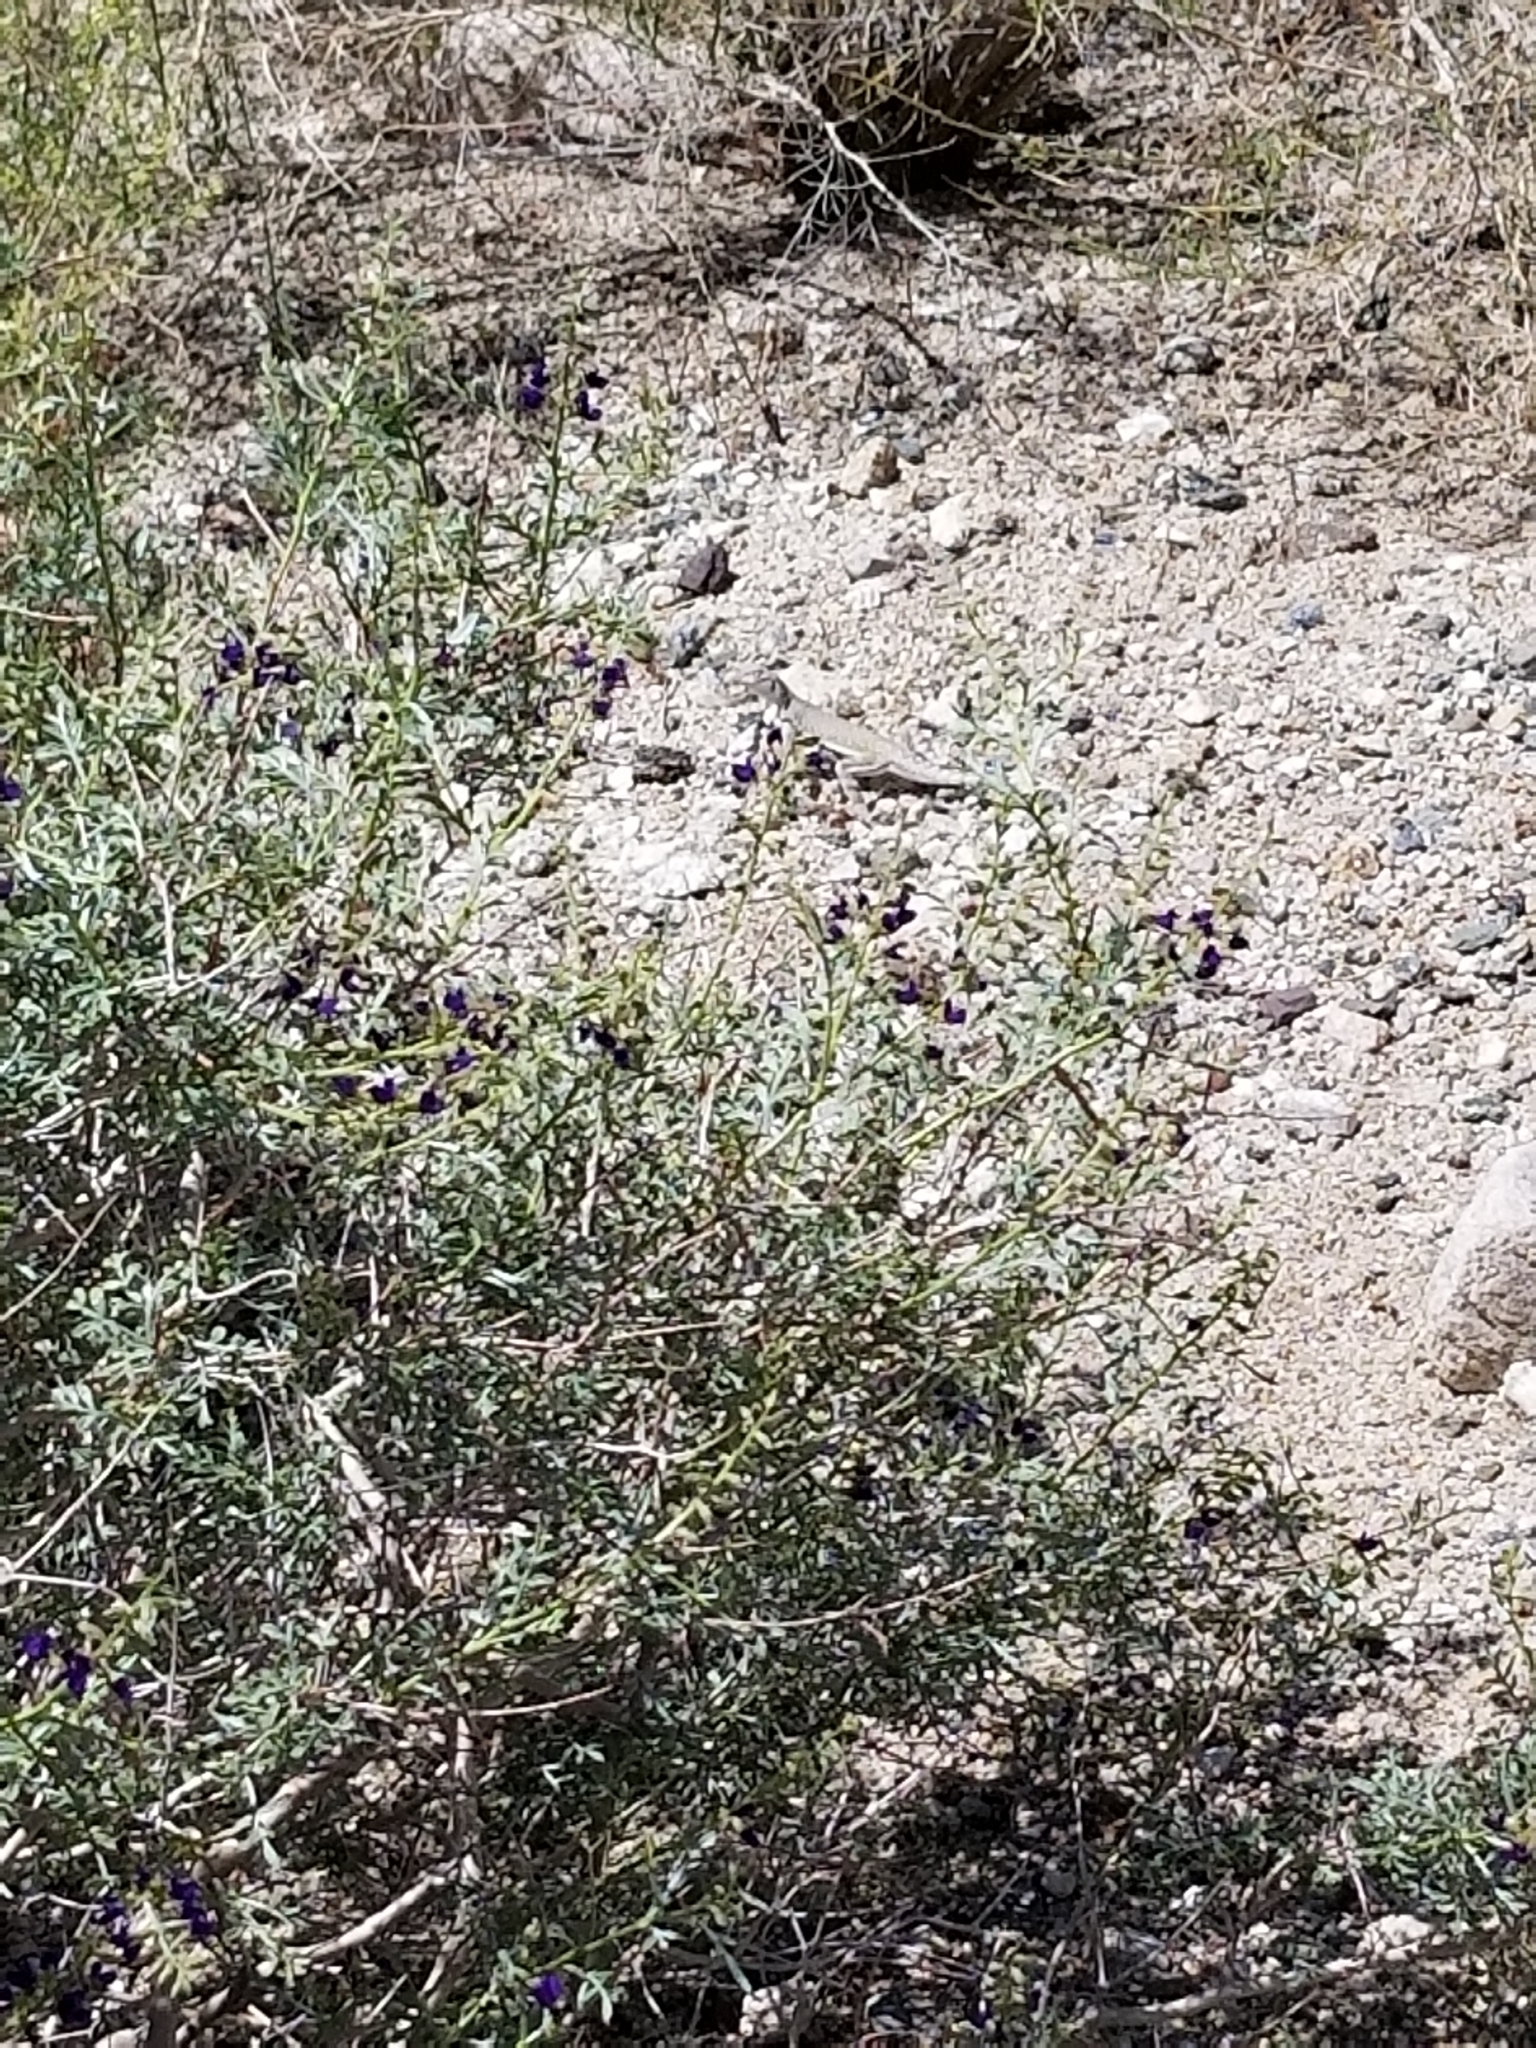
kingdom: Animalia
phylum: Chordata
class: Squamata
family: Phrynosomatidae
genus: Callisaurus
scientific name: Callisaurus draconoides
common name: Zebra-tailed lizard
